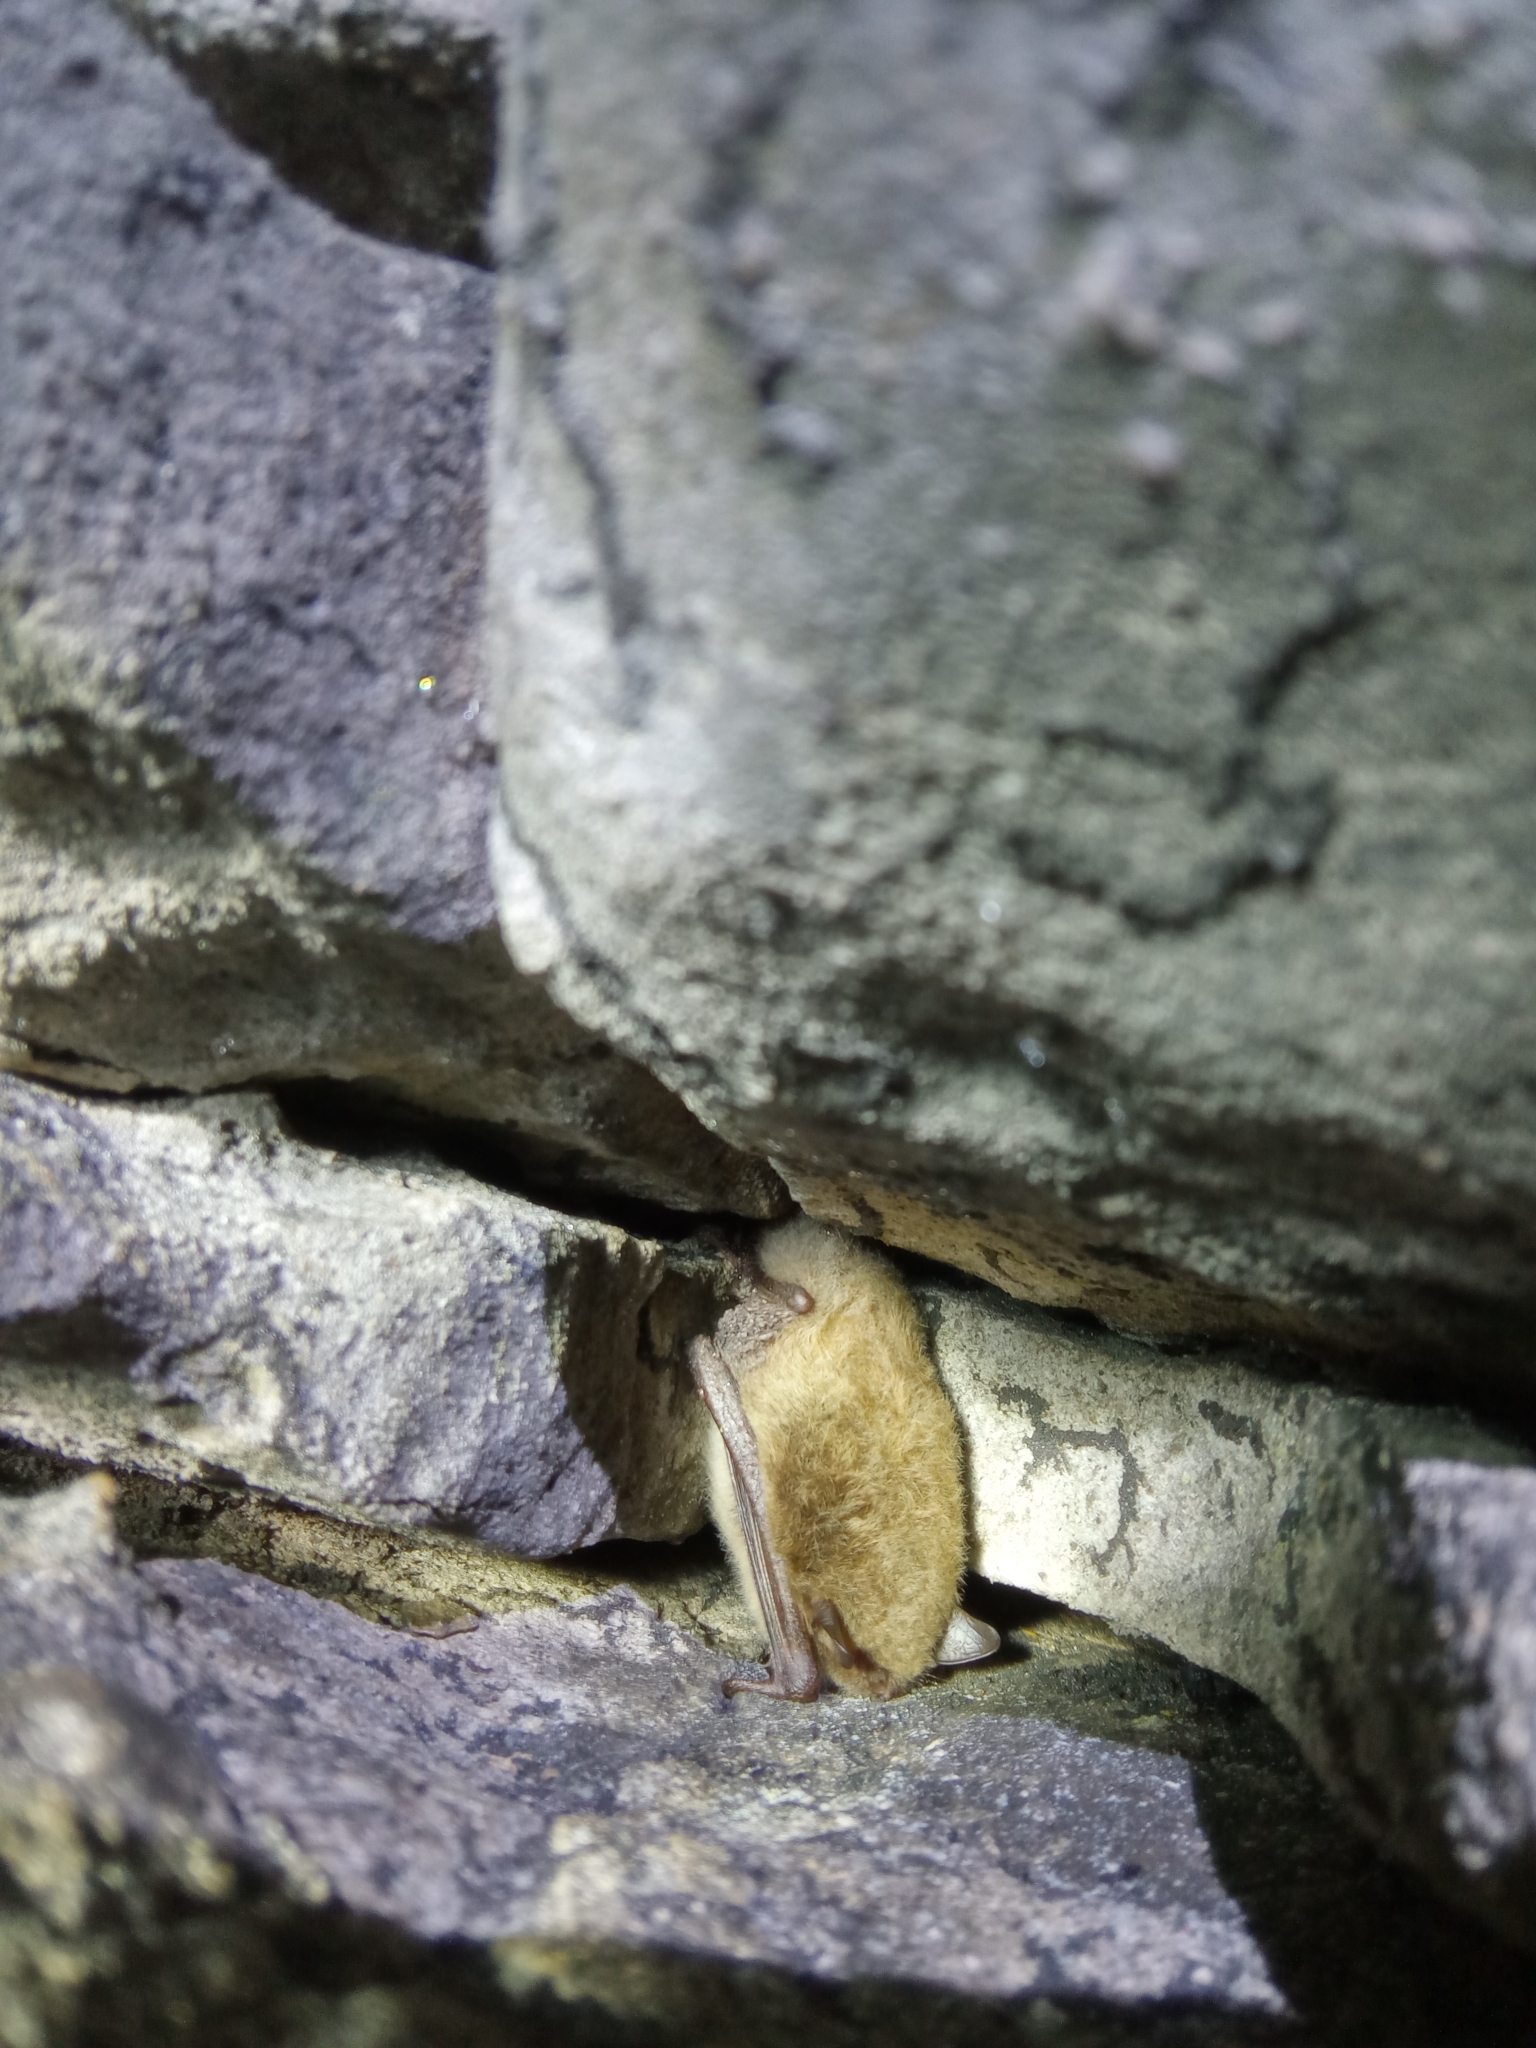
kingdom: Animalia
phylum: Chordata
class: Mammalia
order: Chiroptera
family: Vespertilionidae
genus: Myotis
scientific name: Myotis daubentonii
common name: Daubenton's myotis
